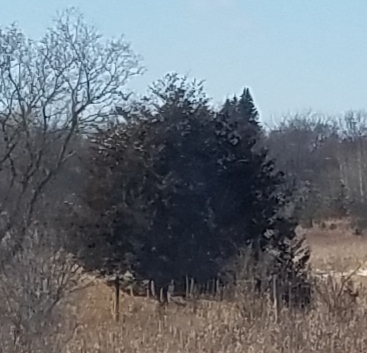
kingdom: Plantae
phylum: Tracheophyta
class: Pinopsida
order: Pinales
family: Cupressaceae
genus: Juniperus
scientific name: Juniperus virginiana
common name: Red juniper
